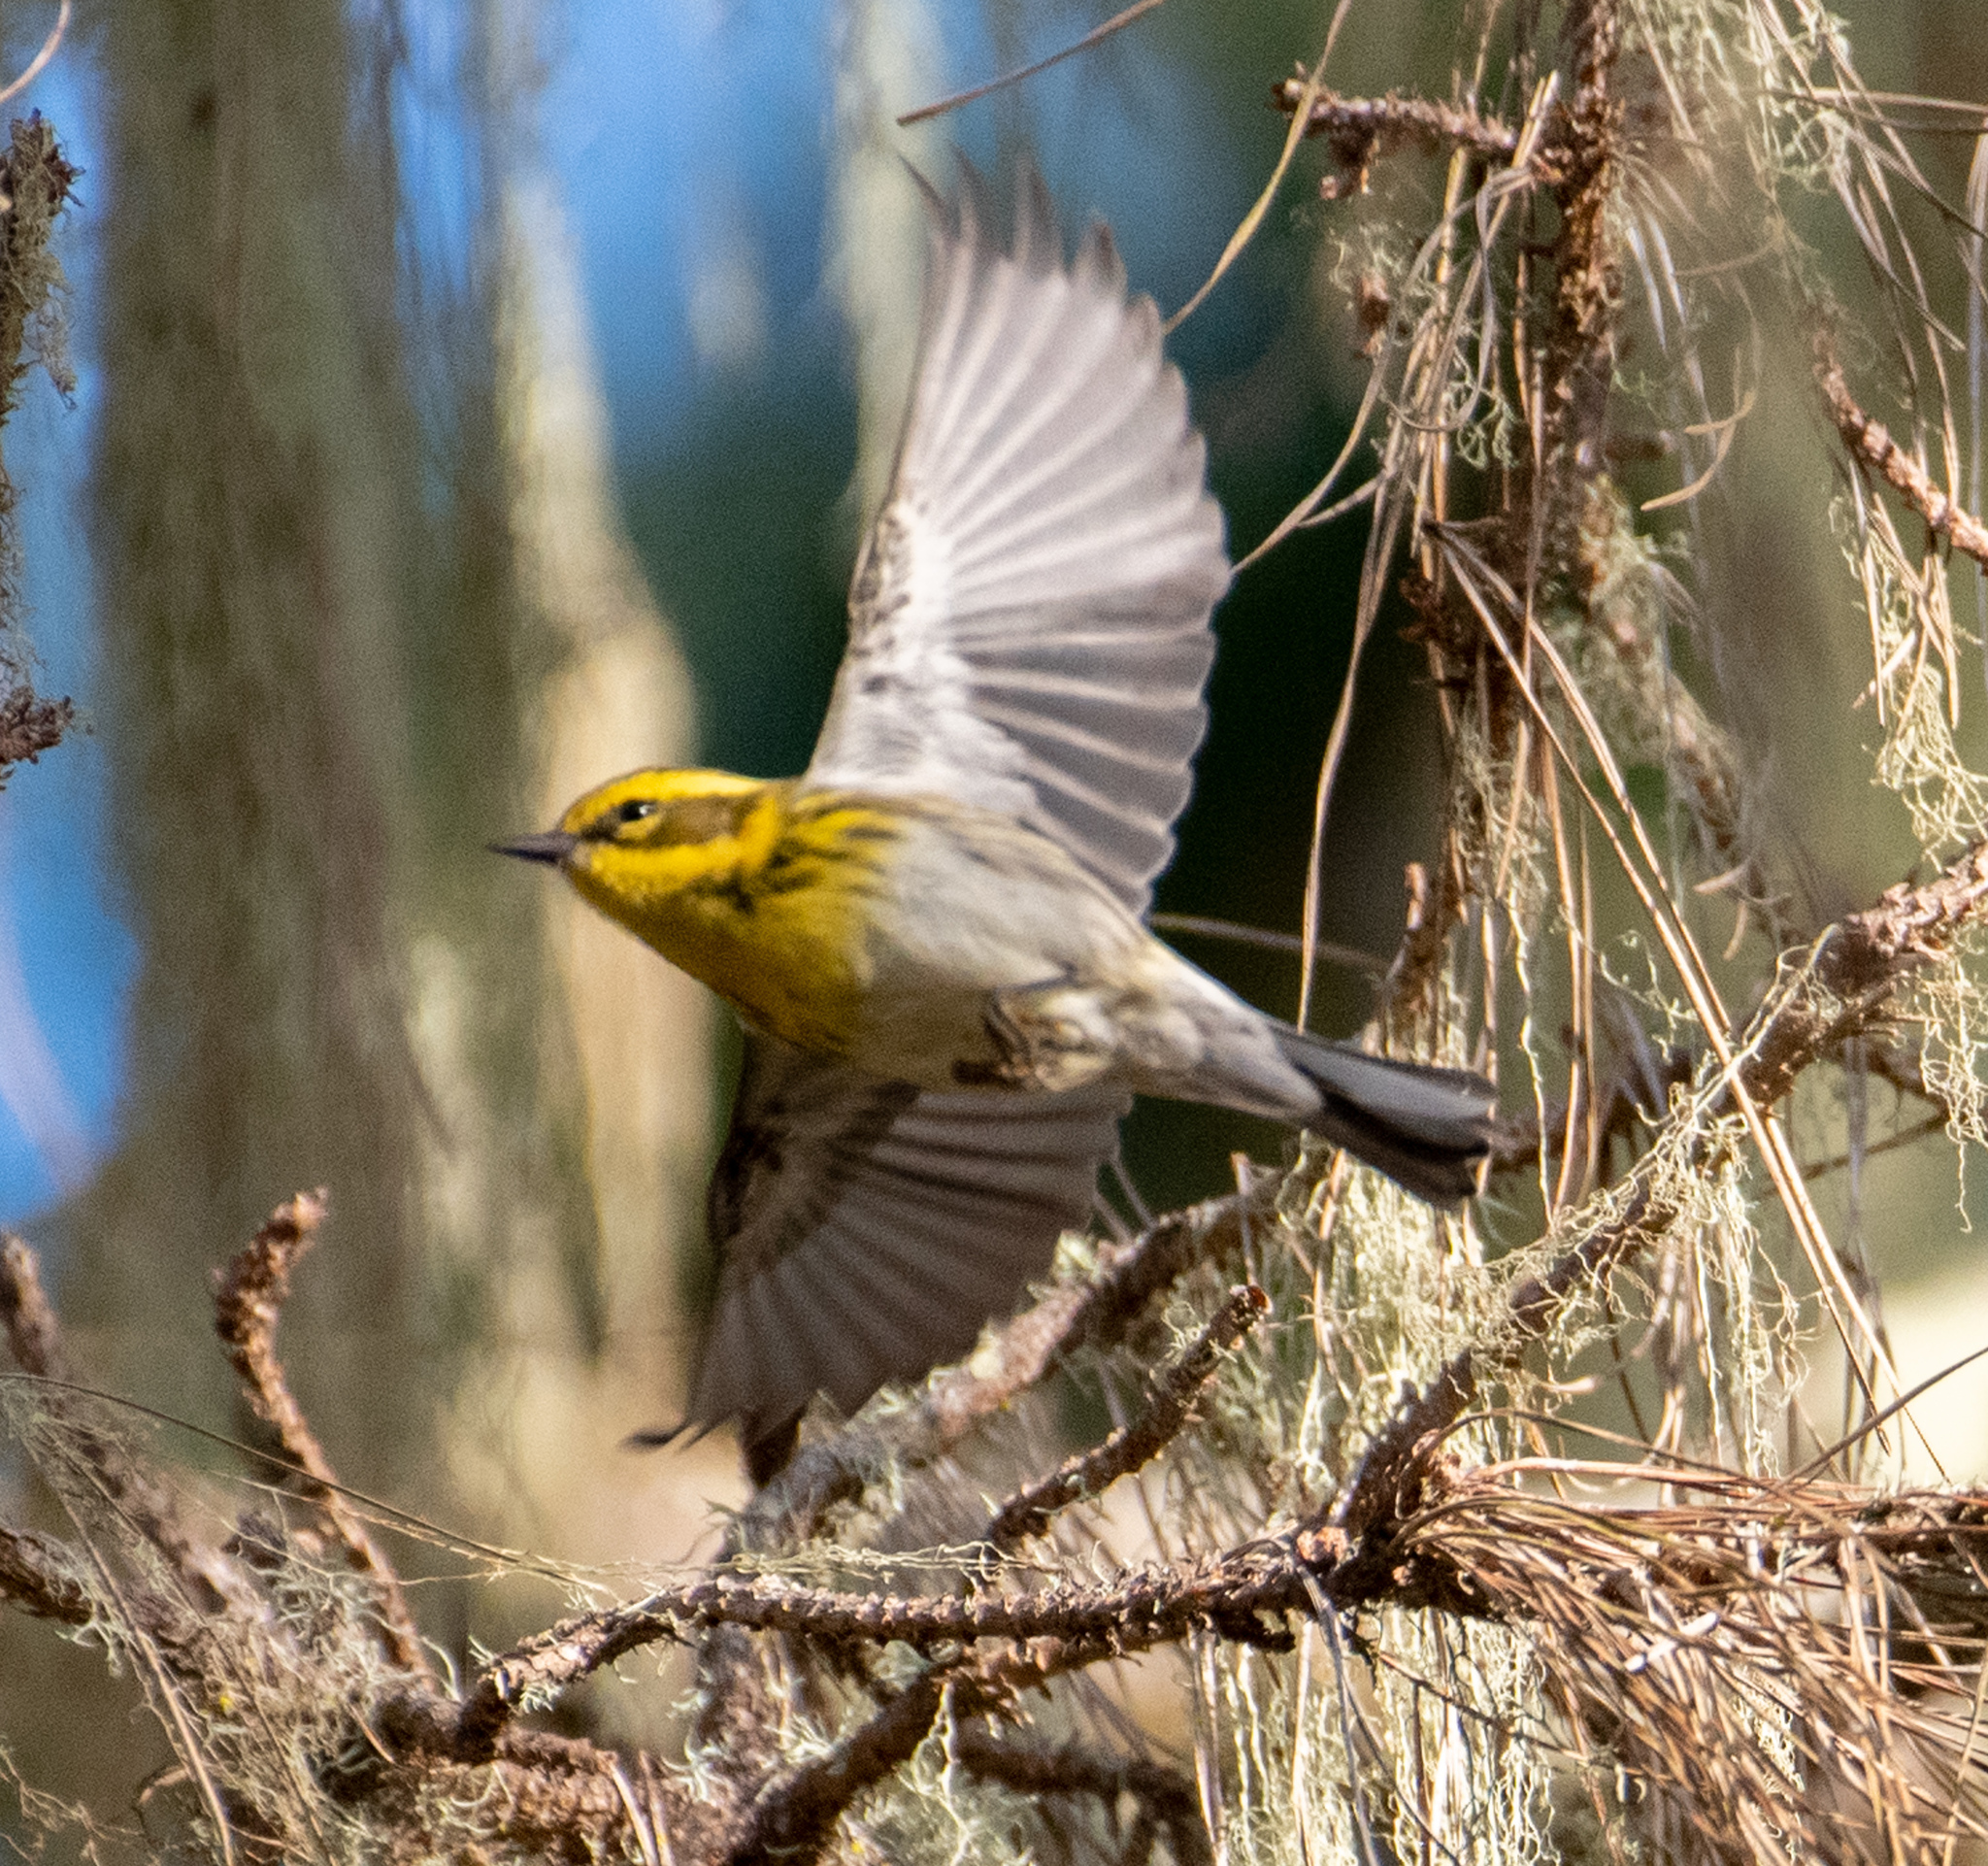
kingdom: Animalia
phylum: Chordata
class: Aves
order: Passeriformes
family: Parulidae
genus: Setophaga
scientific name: Setophaga townsendi
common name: Townsend's warbler
